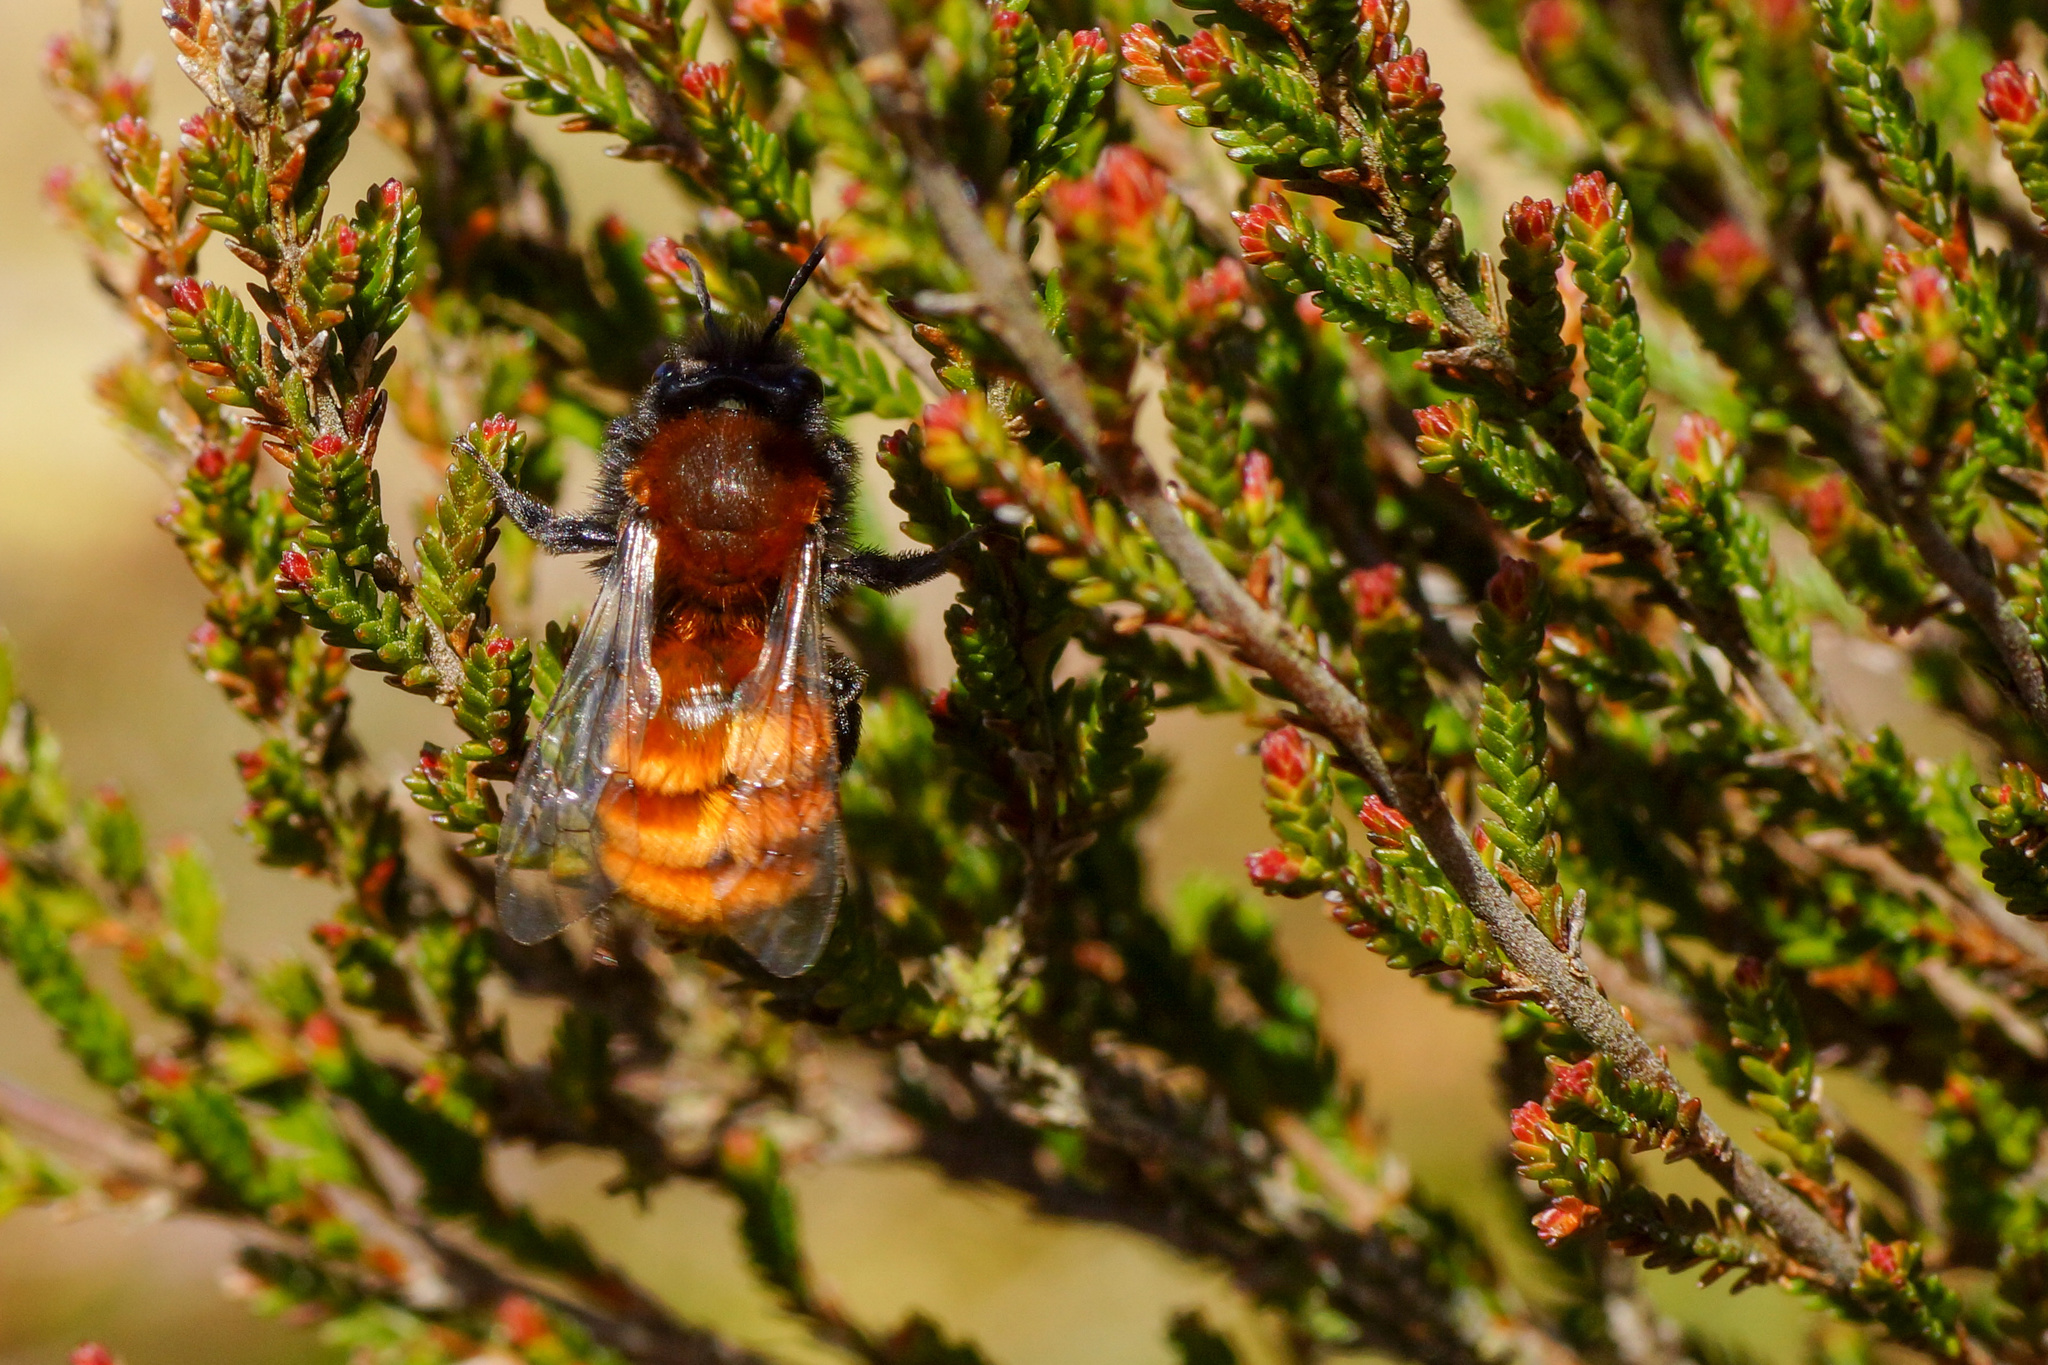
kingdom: Animalia
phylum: Arthropoda
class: Insecta
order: Hymenoptera
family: Andrenidae
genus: Andrena
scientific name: Andrena fulva
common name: Tawny mining bee
